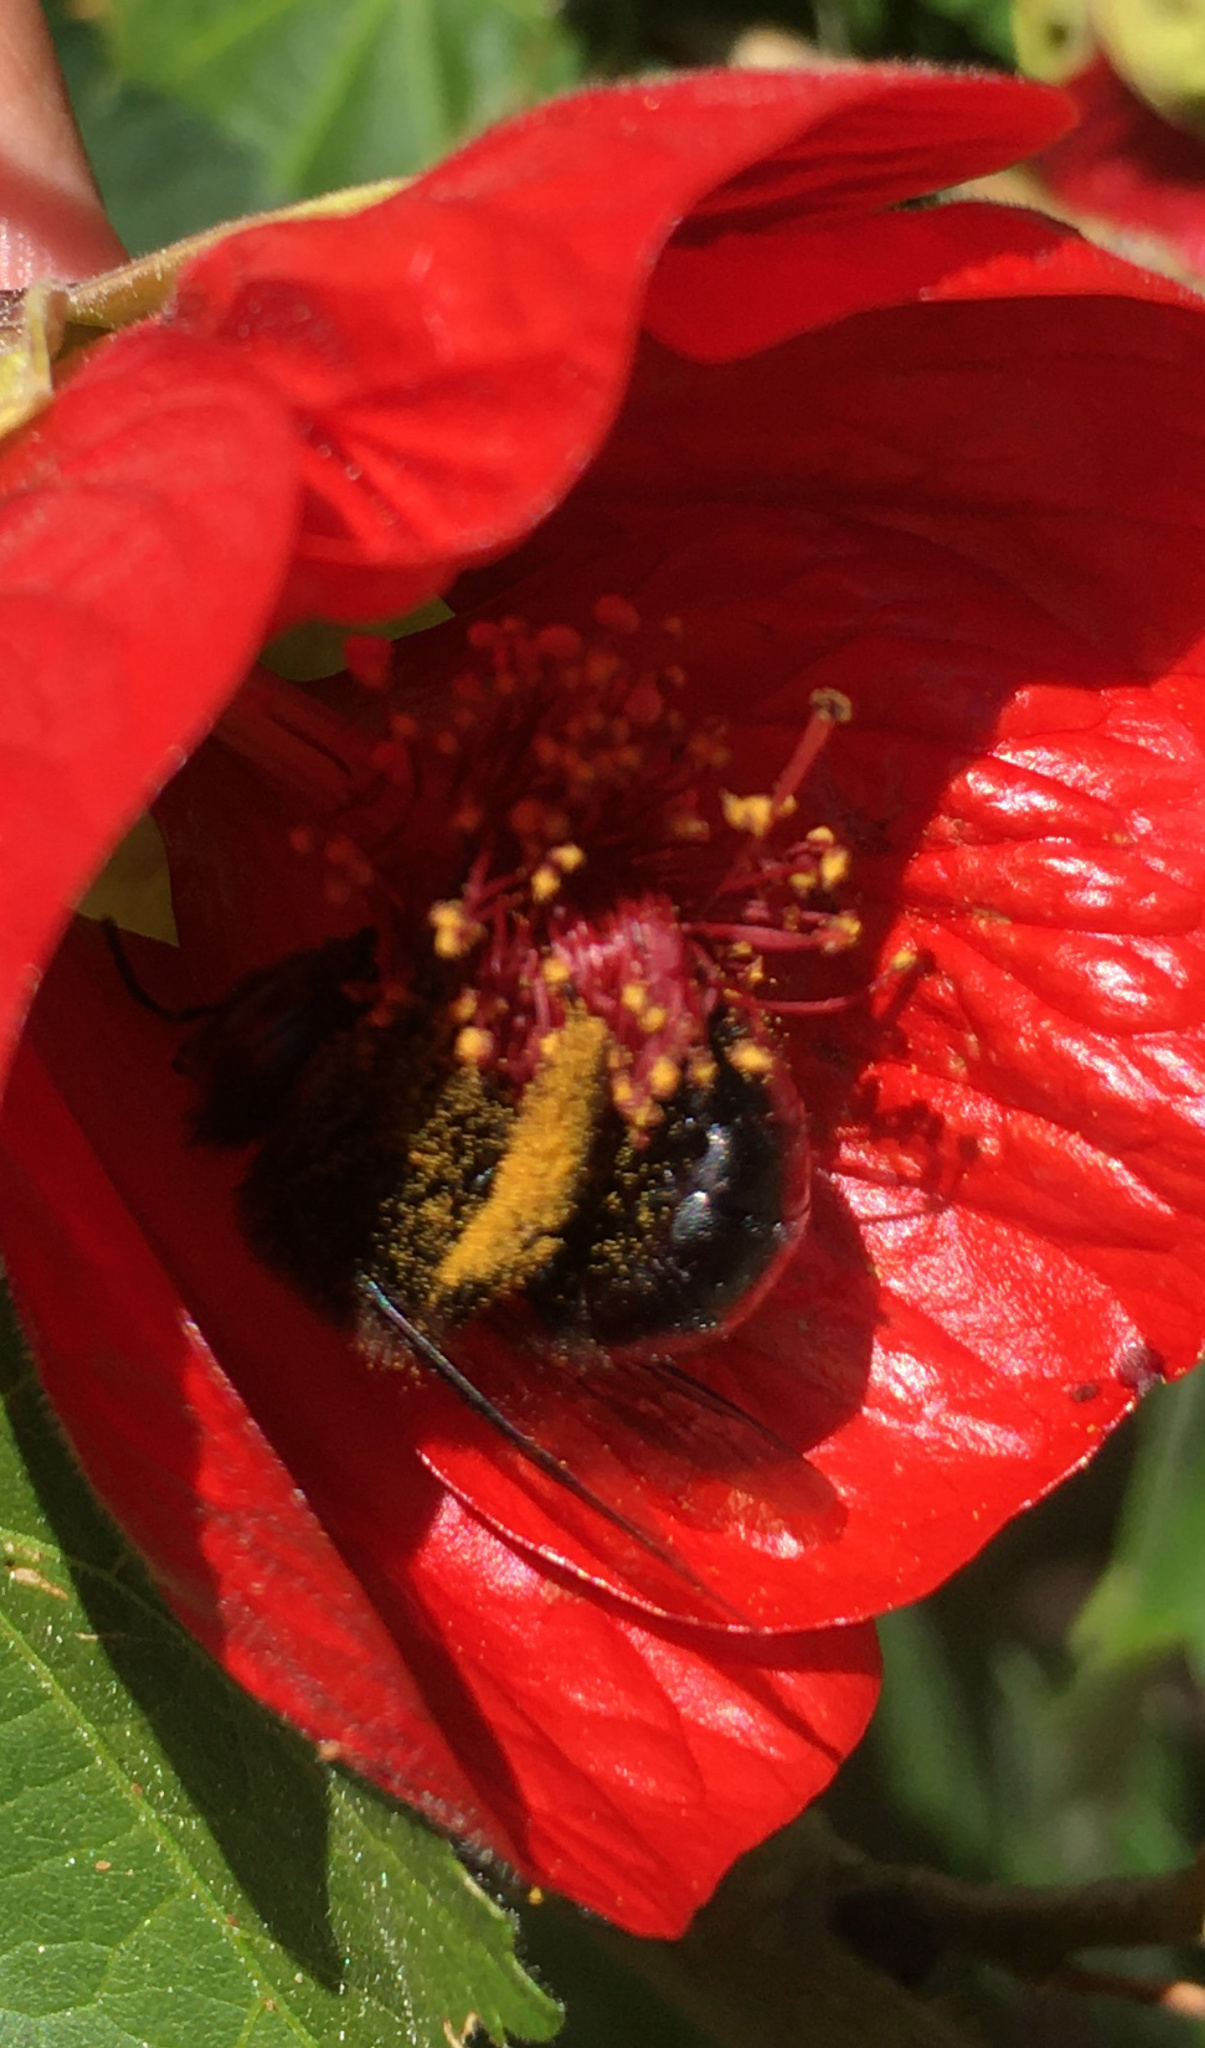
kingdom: Animalia
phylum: Arthropoda
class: Insecta
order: Hymenoptera
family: Apidae
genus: Xylocopa
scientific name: Xylocopa tabaniformis
